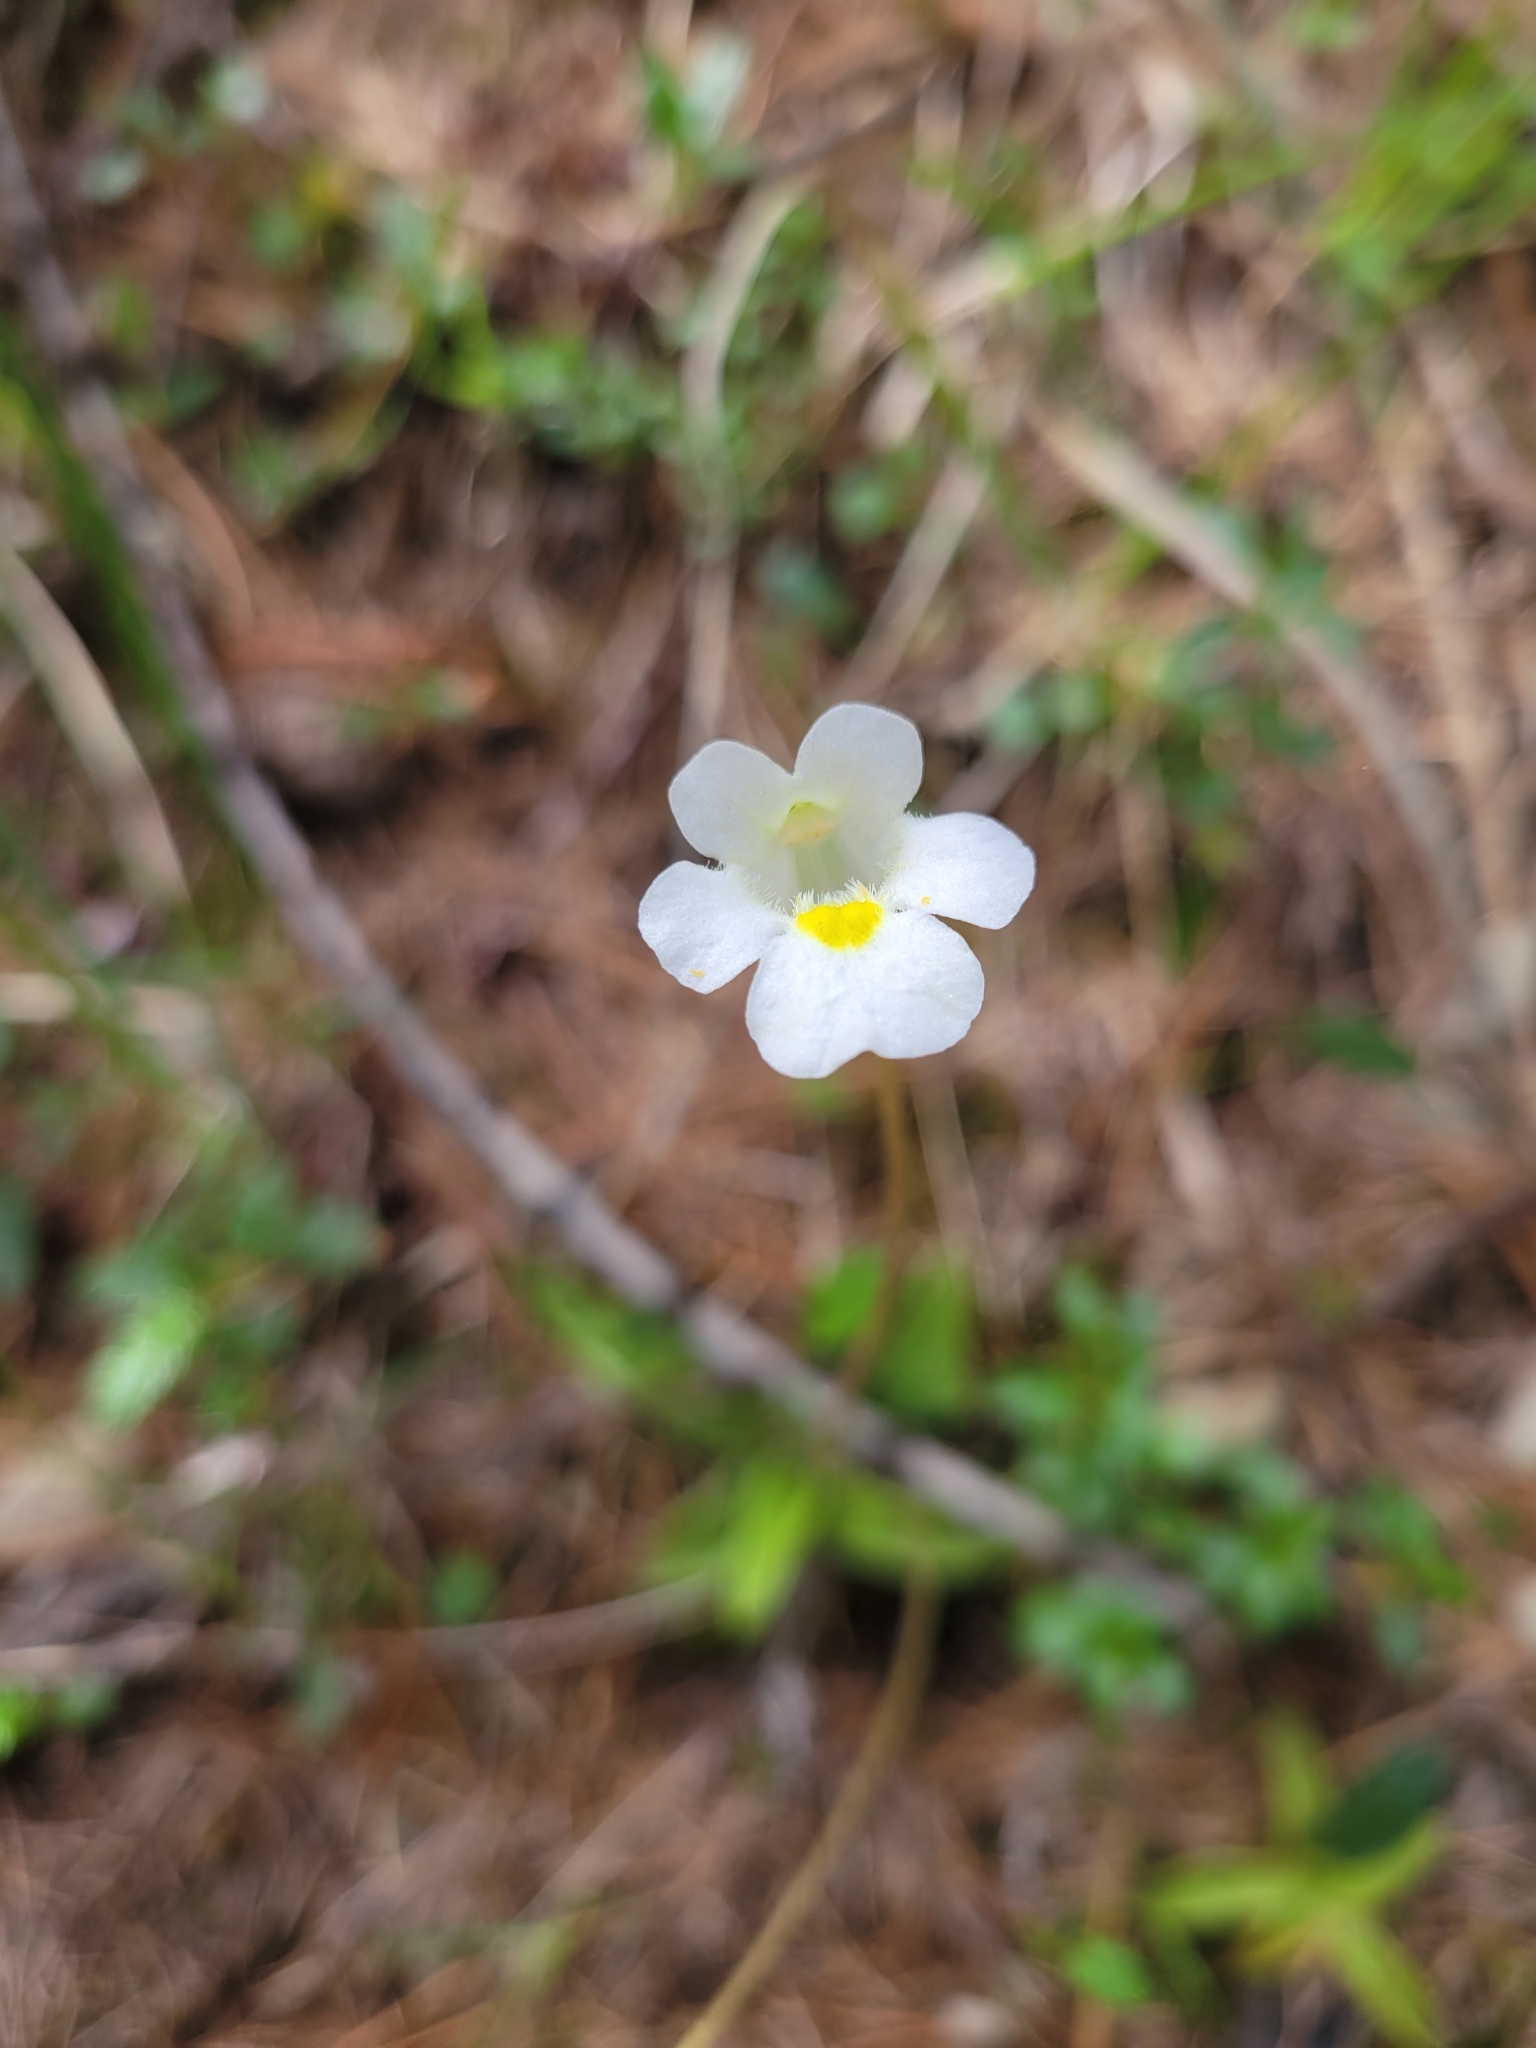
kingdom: Plantae
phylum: Tracheophyta
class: Magnoliopsida
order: Lamiales
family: Lentibulariaceae
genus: Pinguicula
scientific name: Pinguicula alpina
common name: Alpine butterwort
